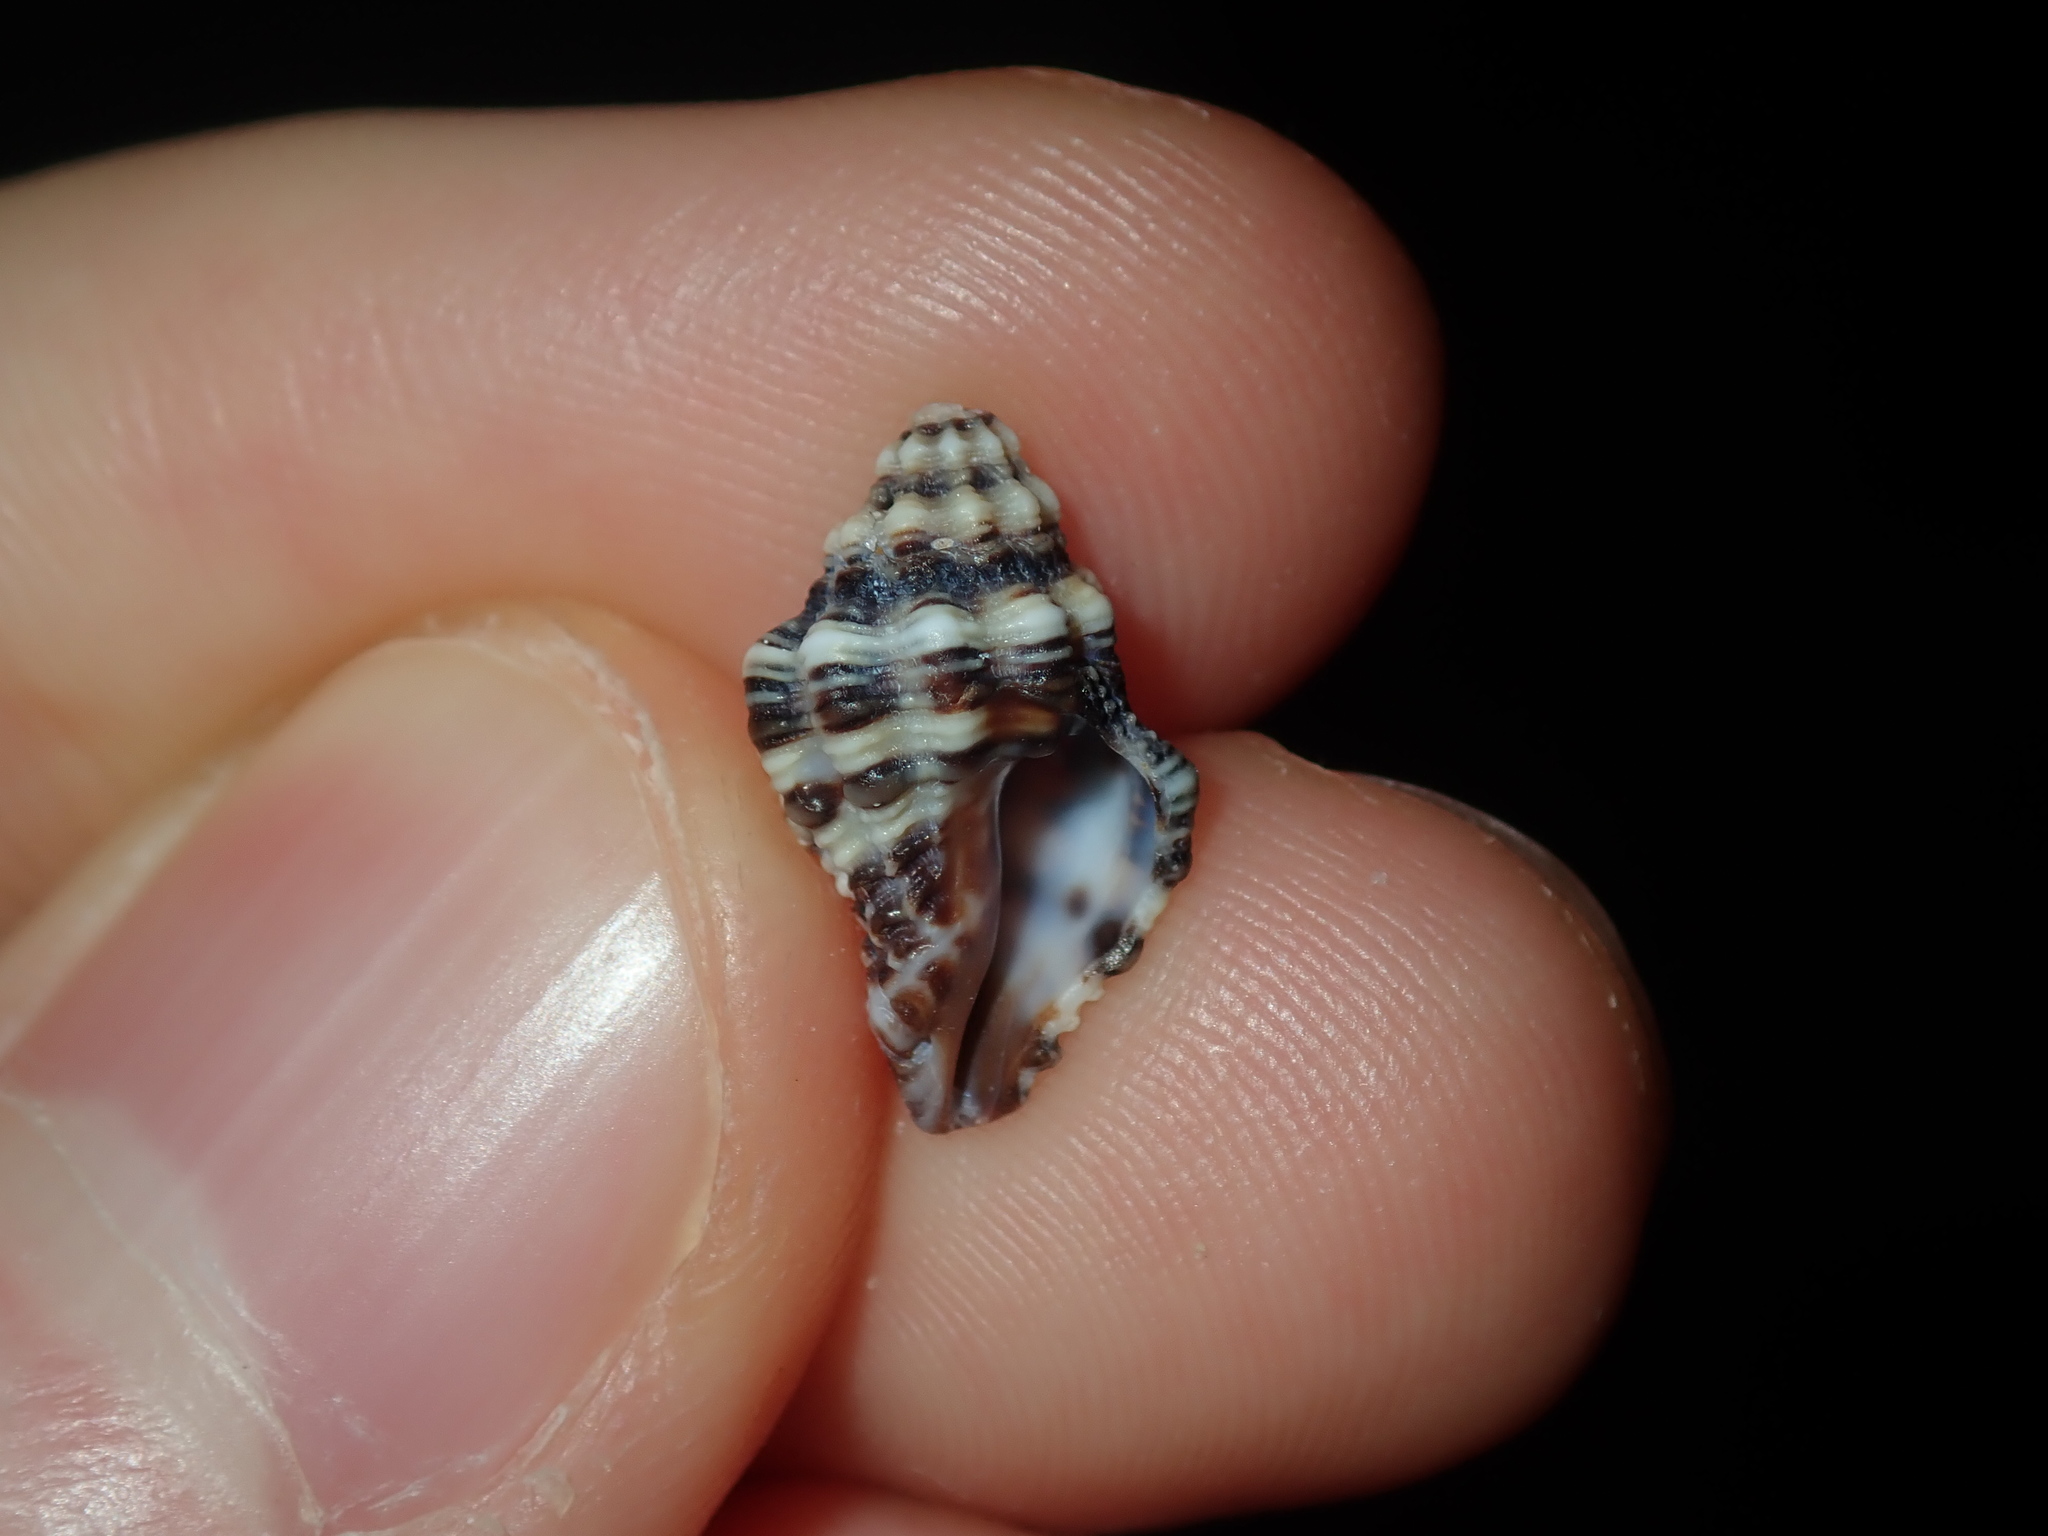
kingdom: Animalia
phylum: Mollusca
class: Gastropoda
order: Neogastropoda
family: Muricidae
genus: Drupella
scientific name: Drupella margariticola
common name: Shouldered castor bean
